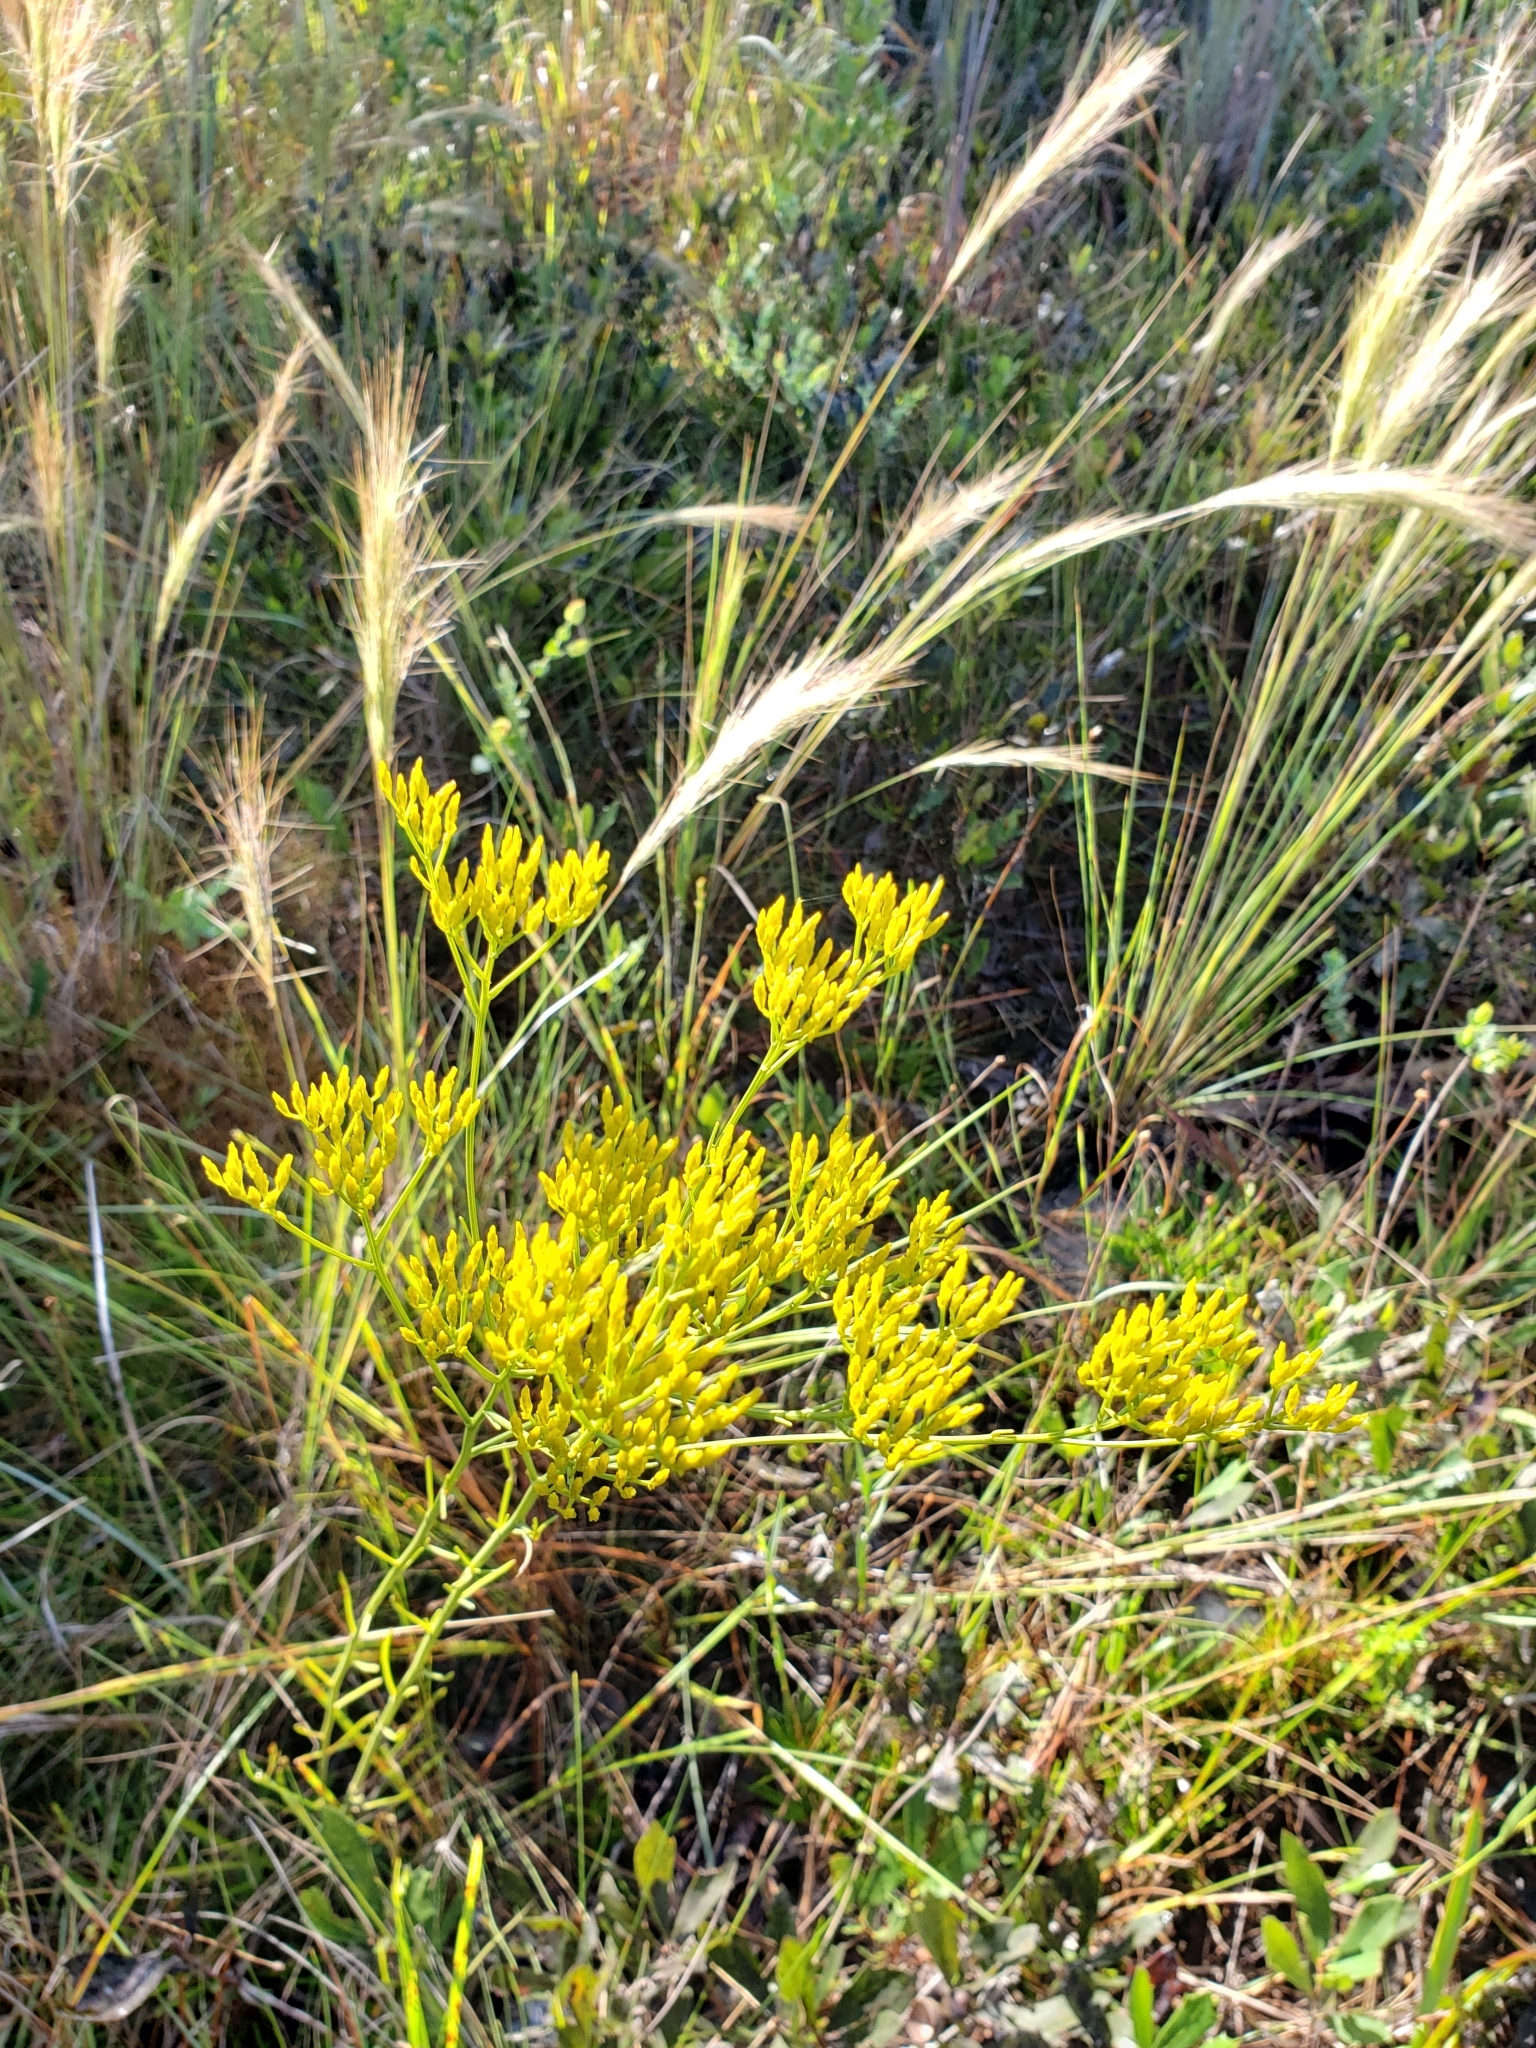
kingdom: Plantae
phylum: Tracheophyta
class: Magnoliopsida
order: Asterales
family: Asteraceae
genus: Bigelowia
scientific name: Bigelowia nudata
